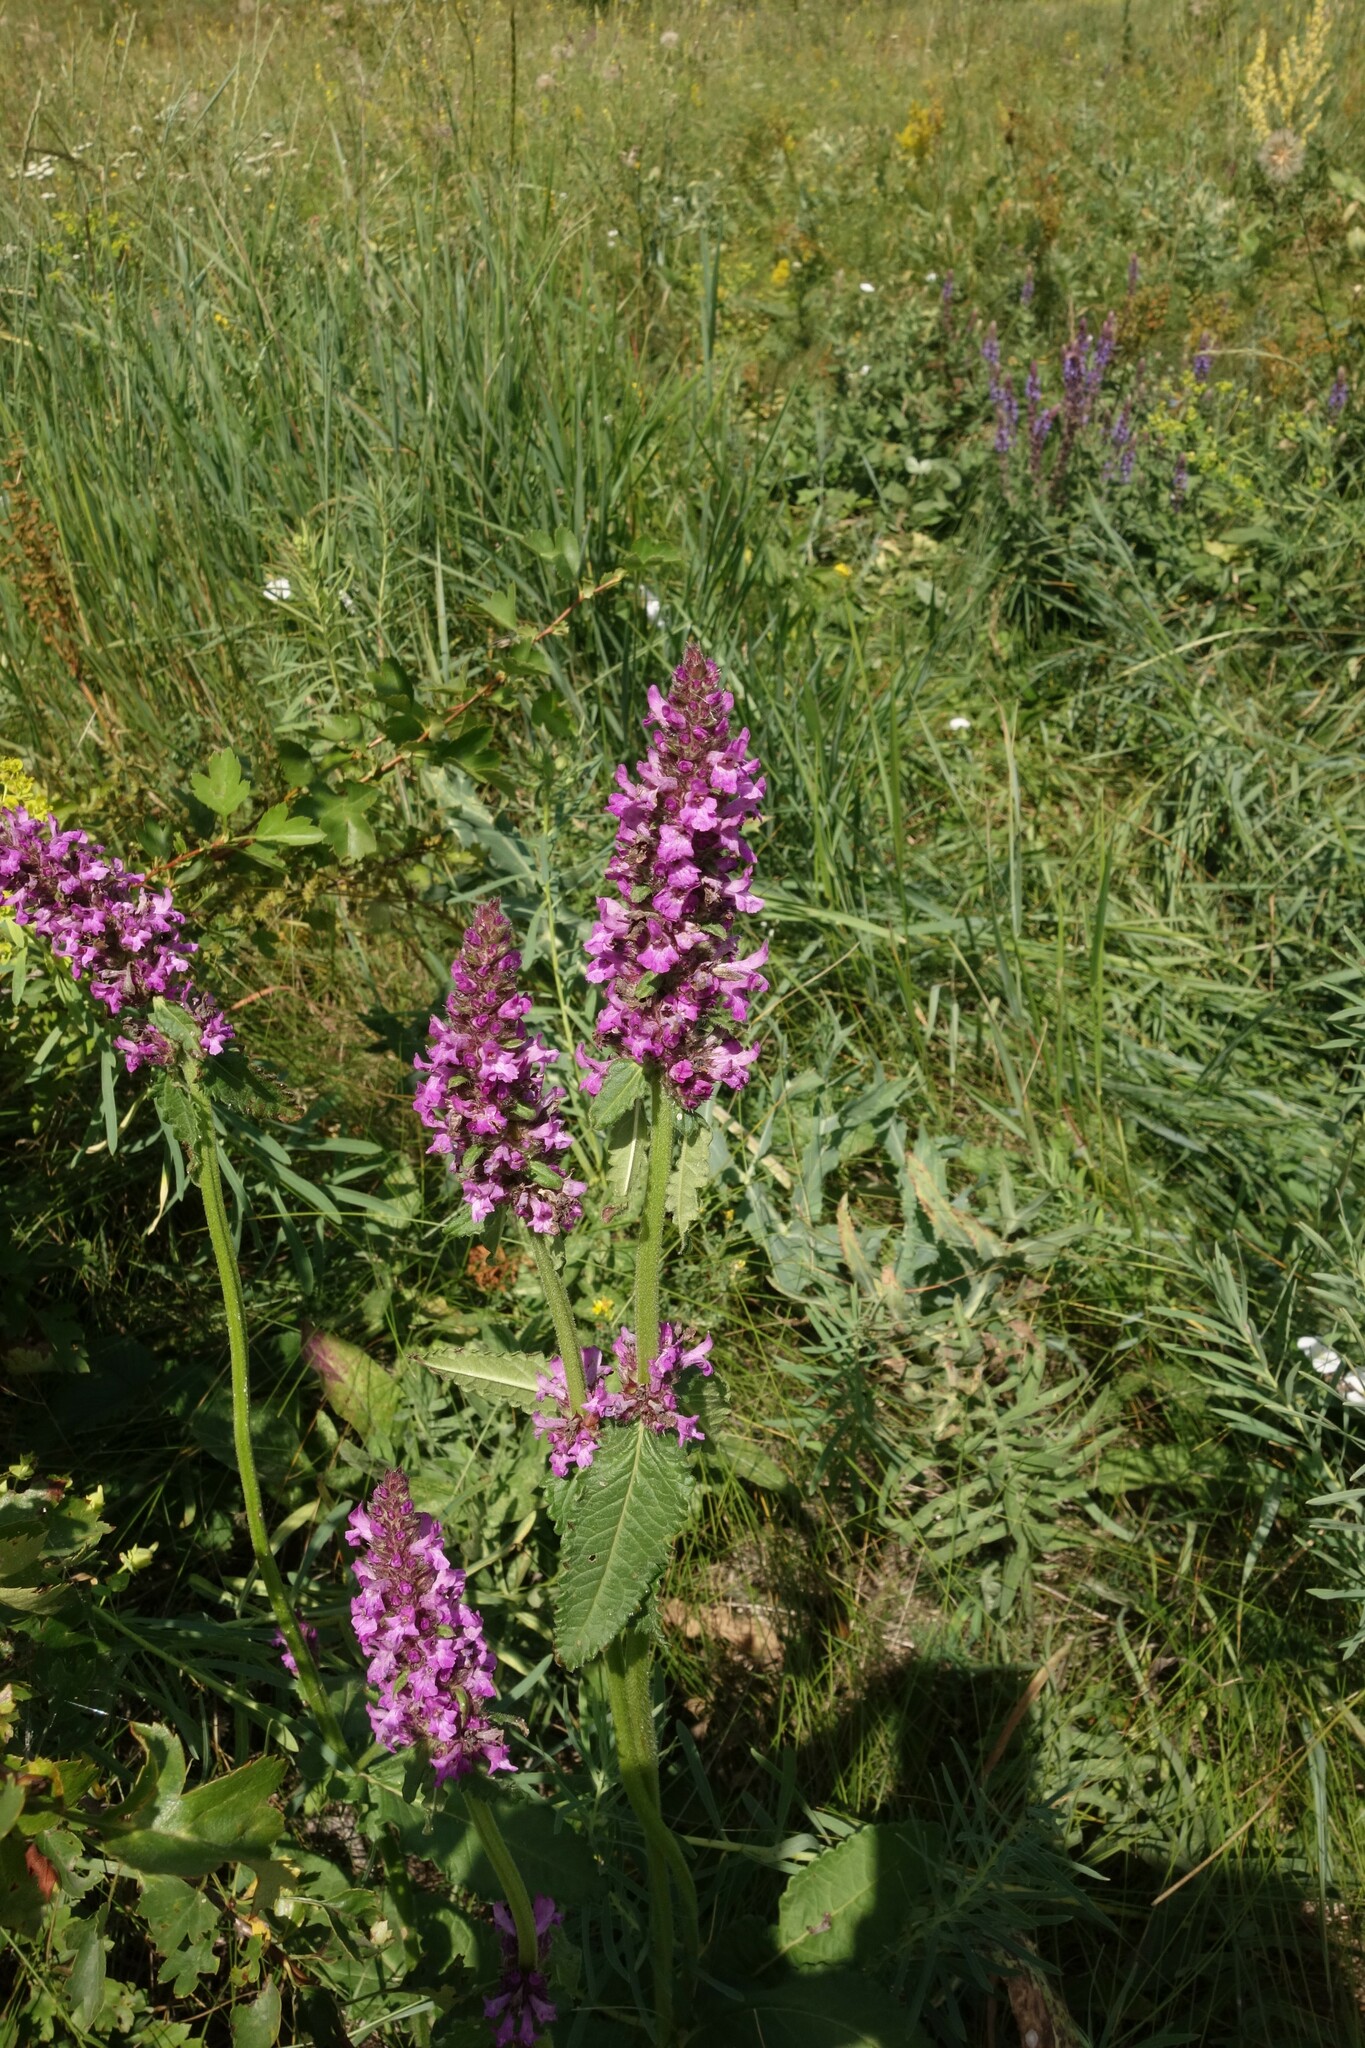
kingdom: Plantae
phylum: Tracheophyta
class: Magnoliopsida
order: Lamiales
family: Lamiaceae
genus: Betonica
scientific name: Betonica officinalis
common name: Bishop's-wort
